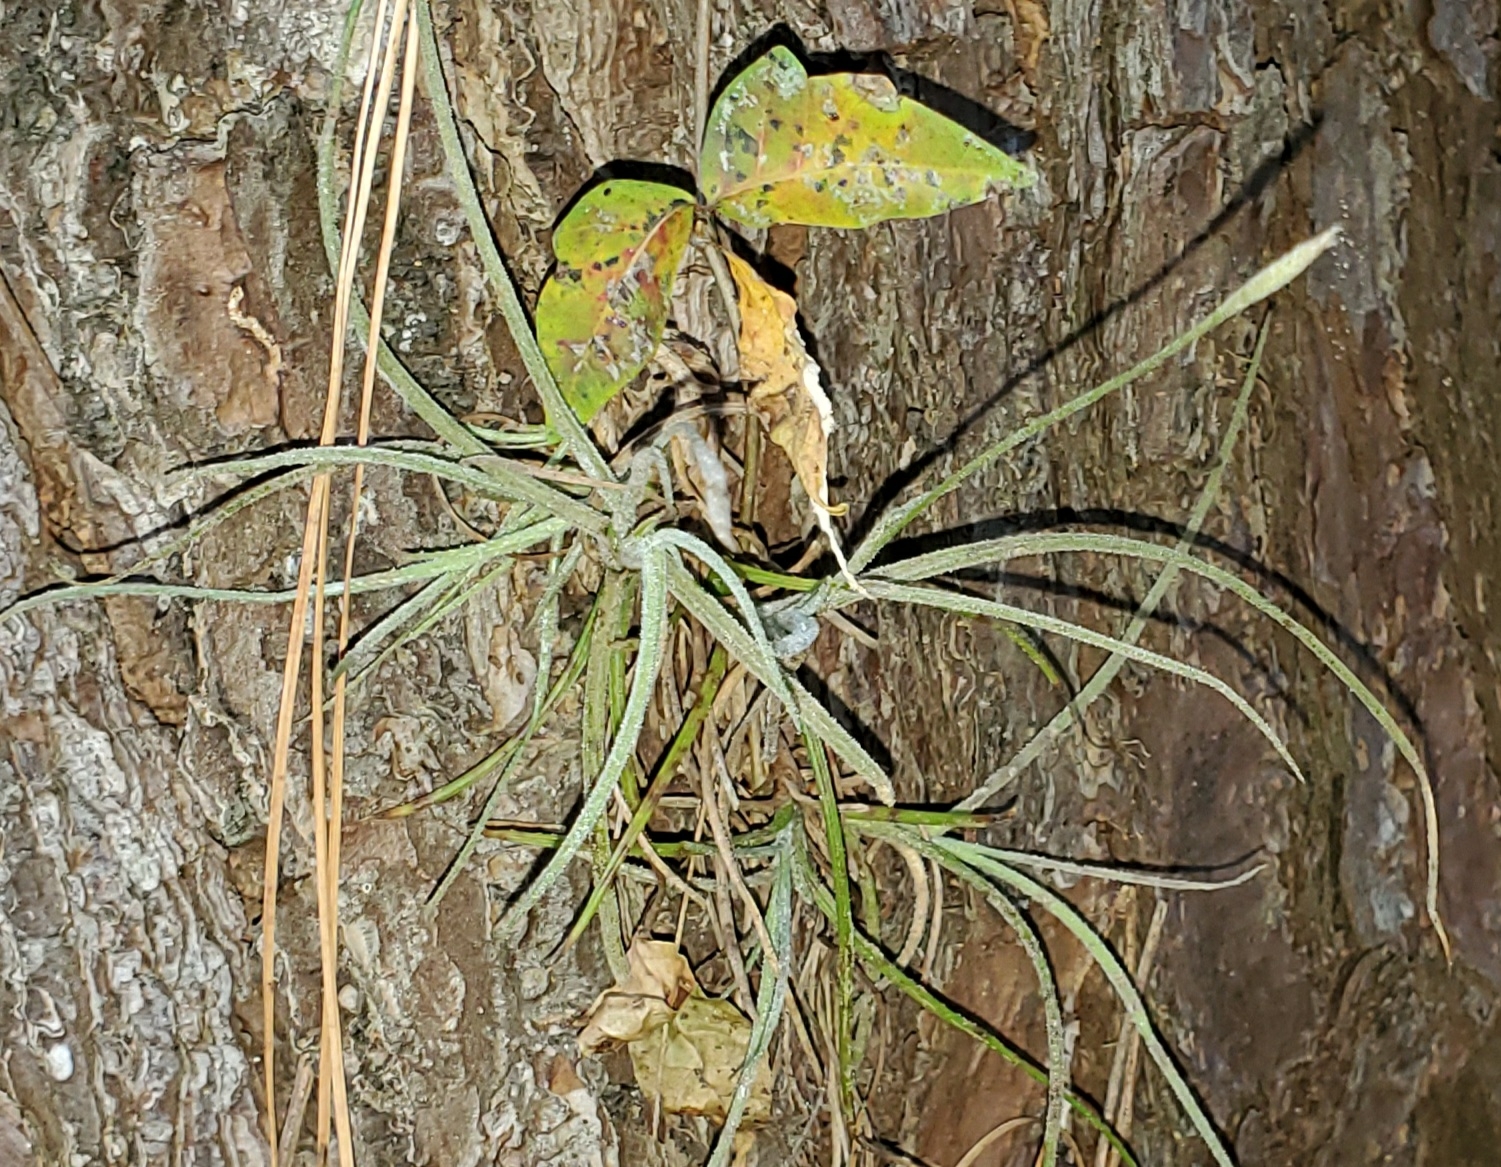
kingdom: Plantae
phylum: Tracheophyta
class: Liliopsida
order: Poales
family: Bromeliaceae
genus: Tillandsia
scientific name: Tillandsia recurvata
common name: Small ballmoss
